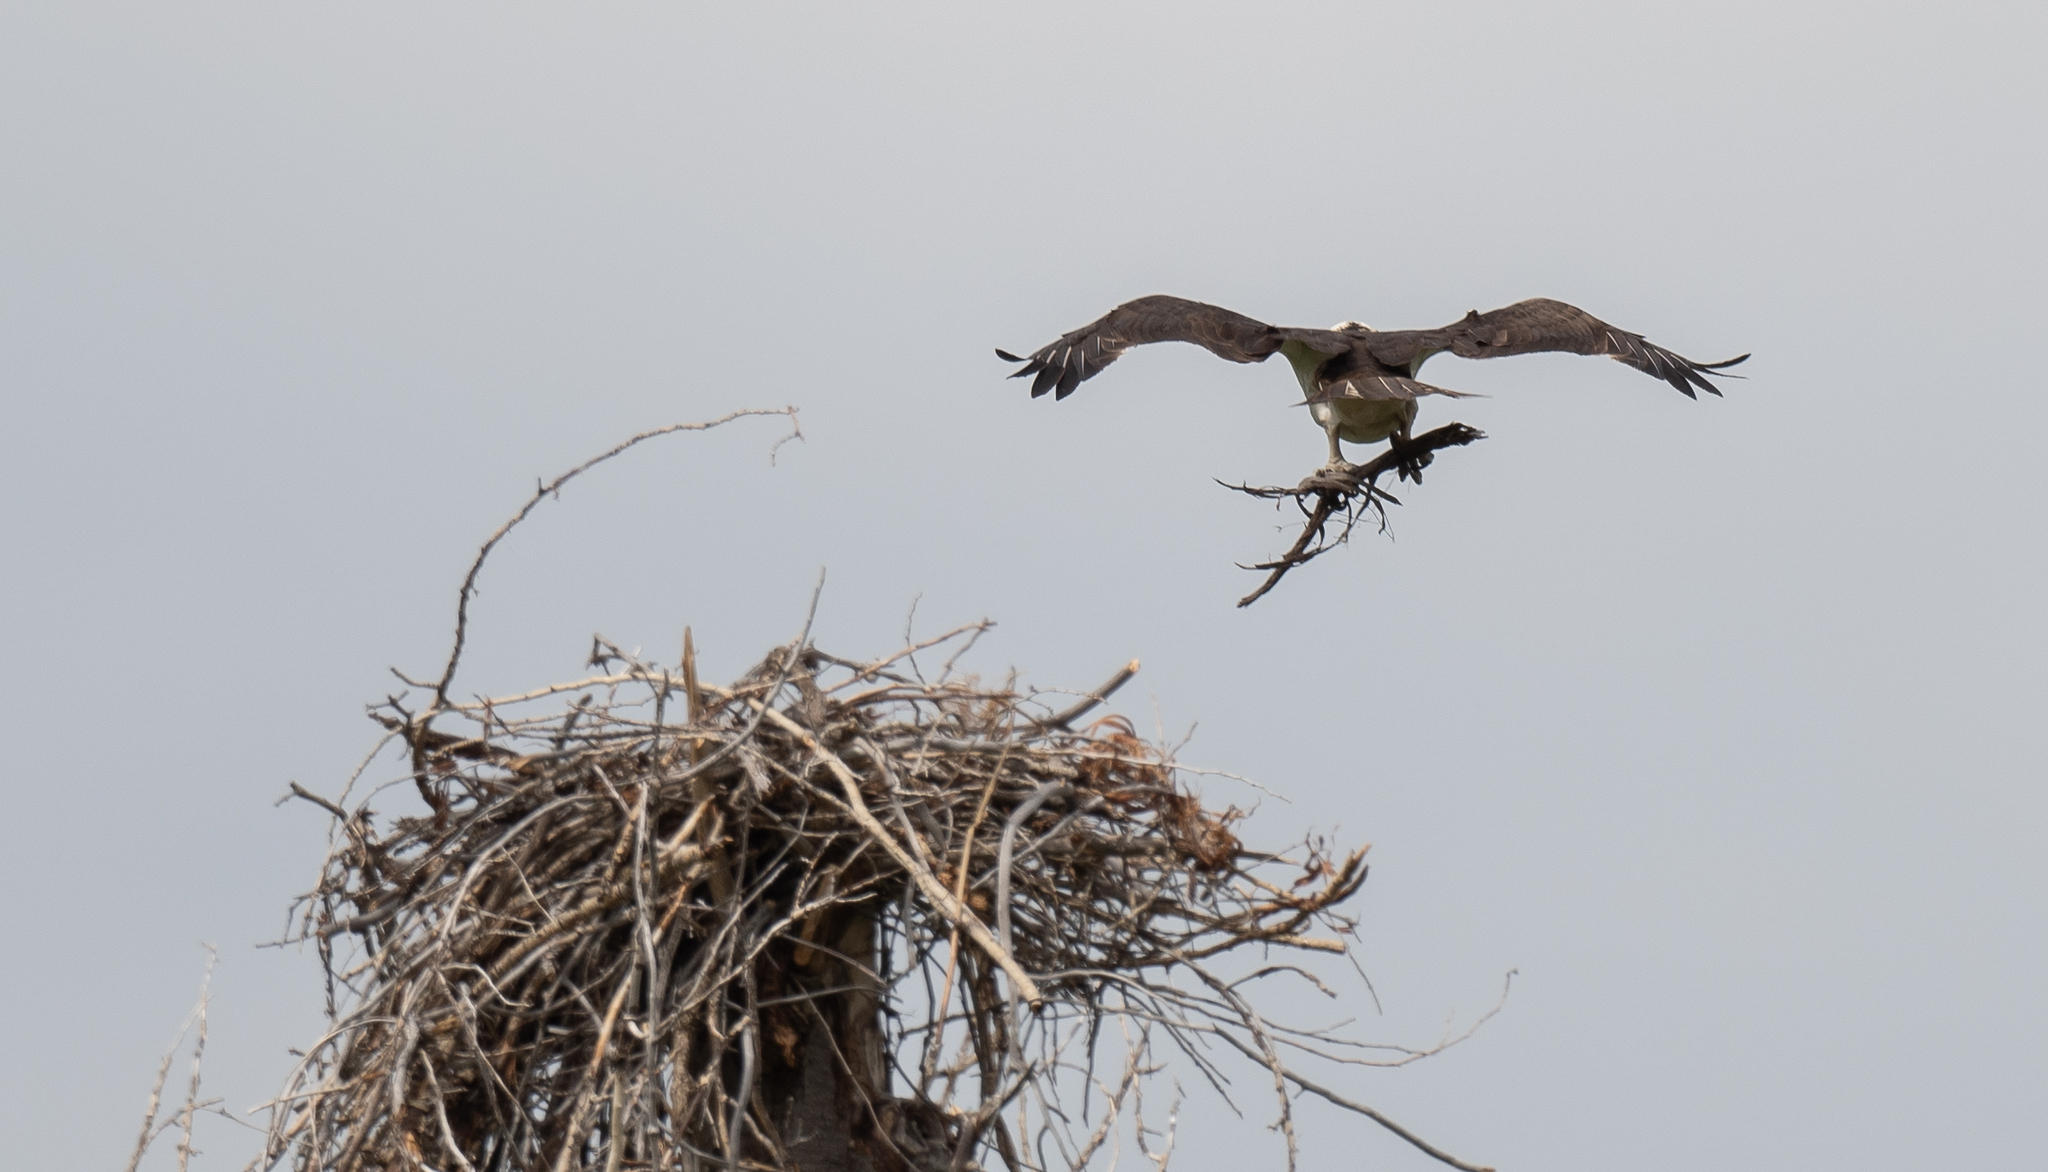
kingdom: Animalia
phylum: Chordata
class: Aves
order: Accipitriformes
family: Pandionidae
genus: Pandion
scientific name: Pandion haliaetus
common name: Osprey
